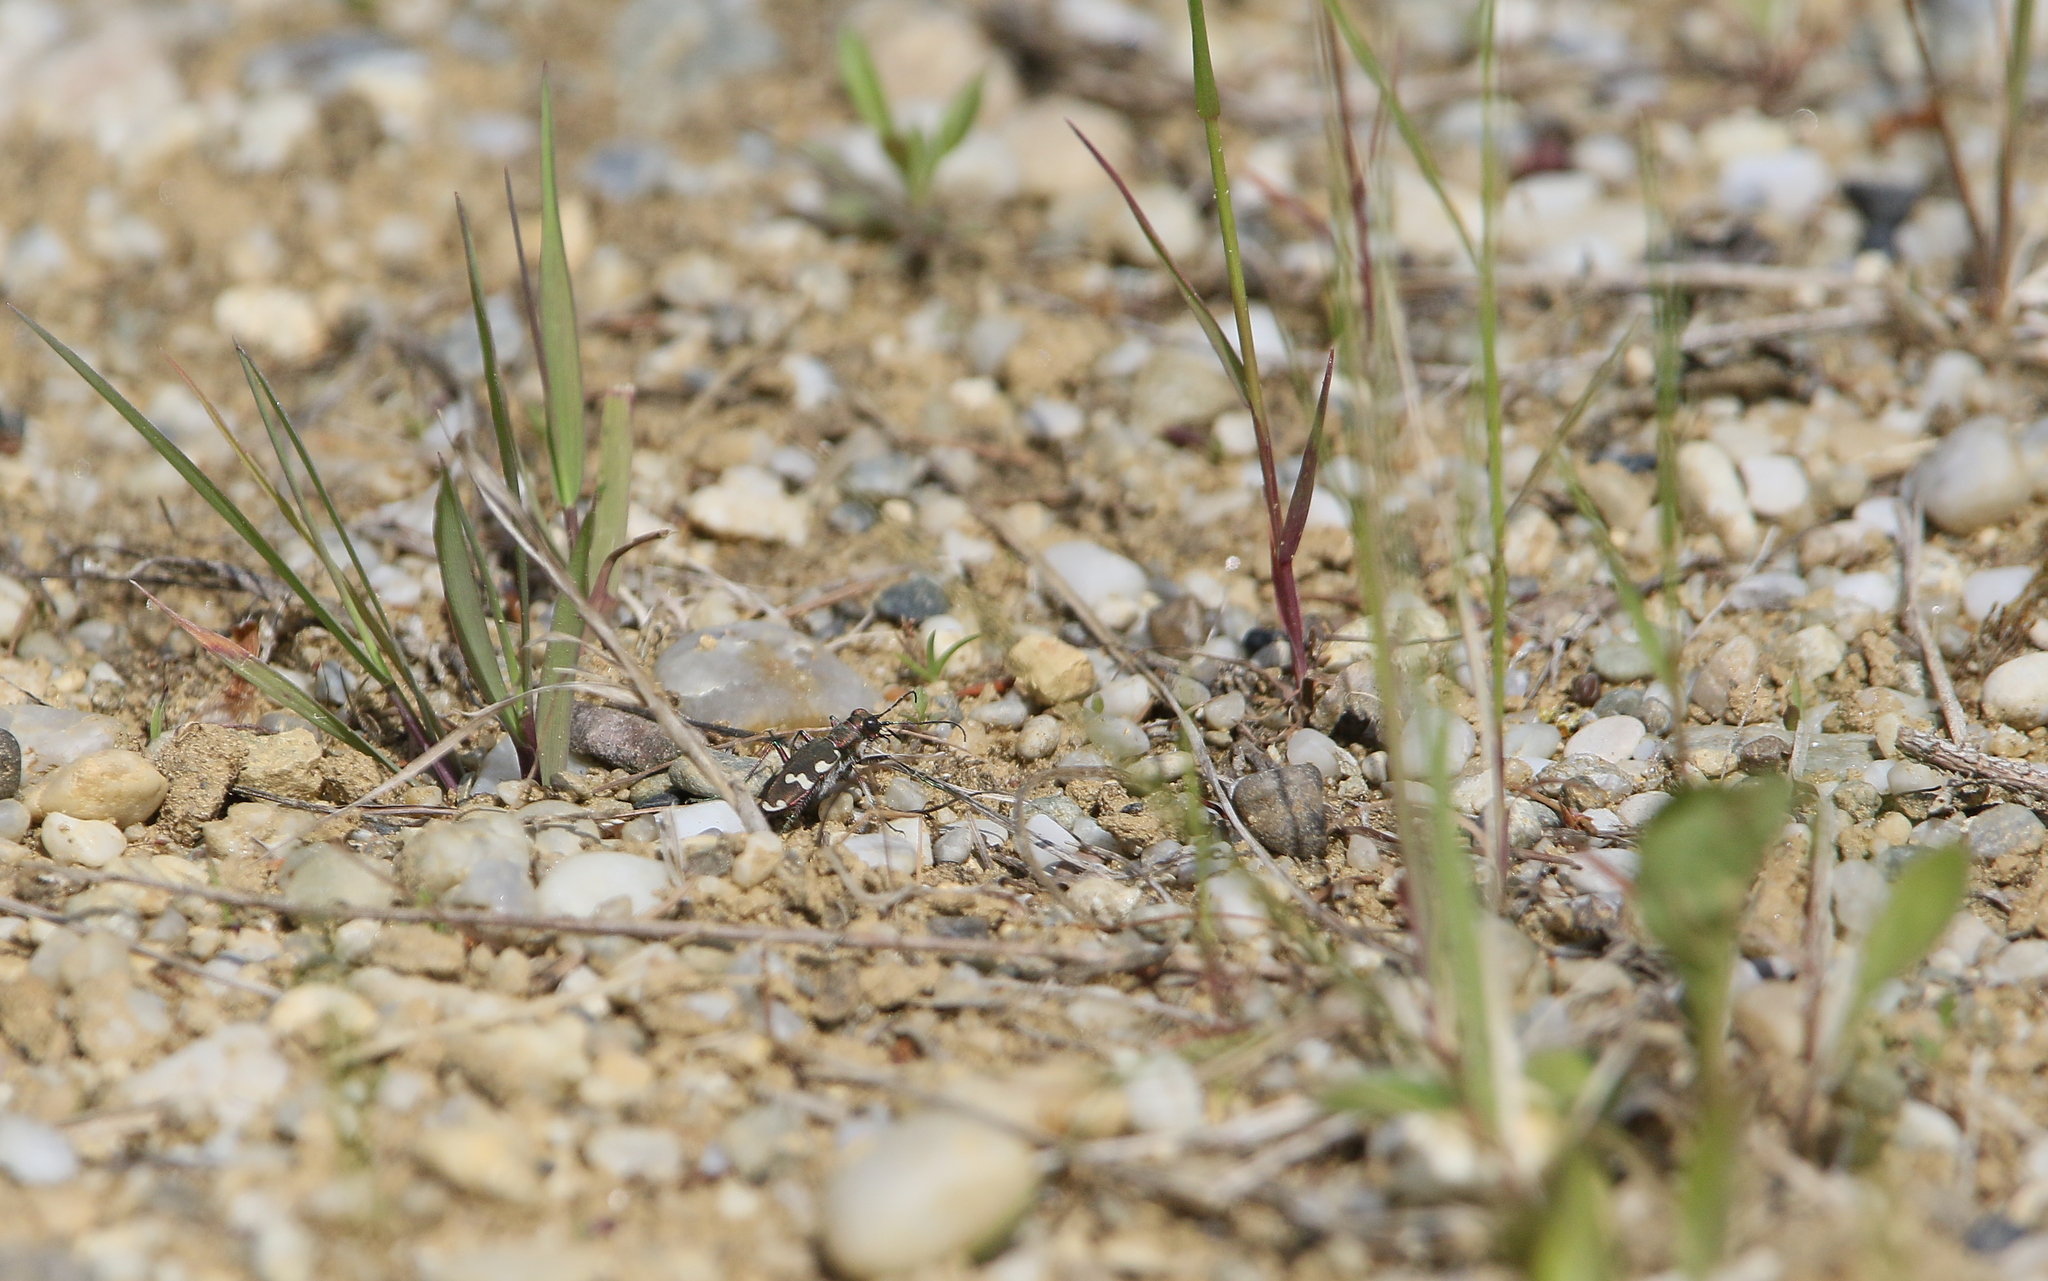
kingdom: Animalia
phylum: Arthropoda
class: Insecta
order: Coleoptera
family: Carabidae
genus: Cicindela
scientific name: Cicindela sylvicola
